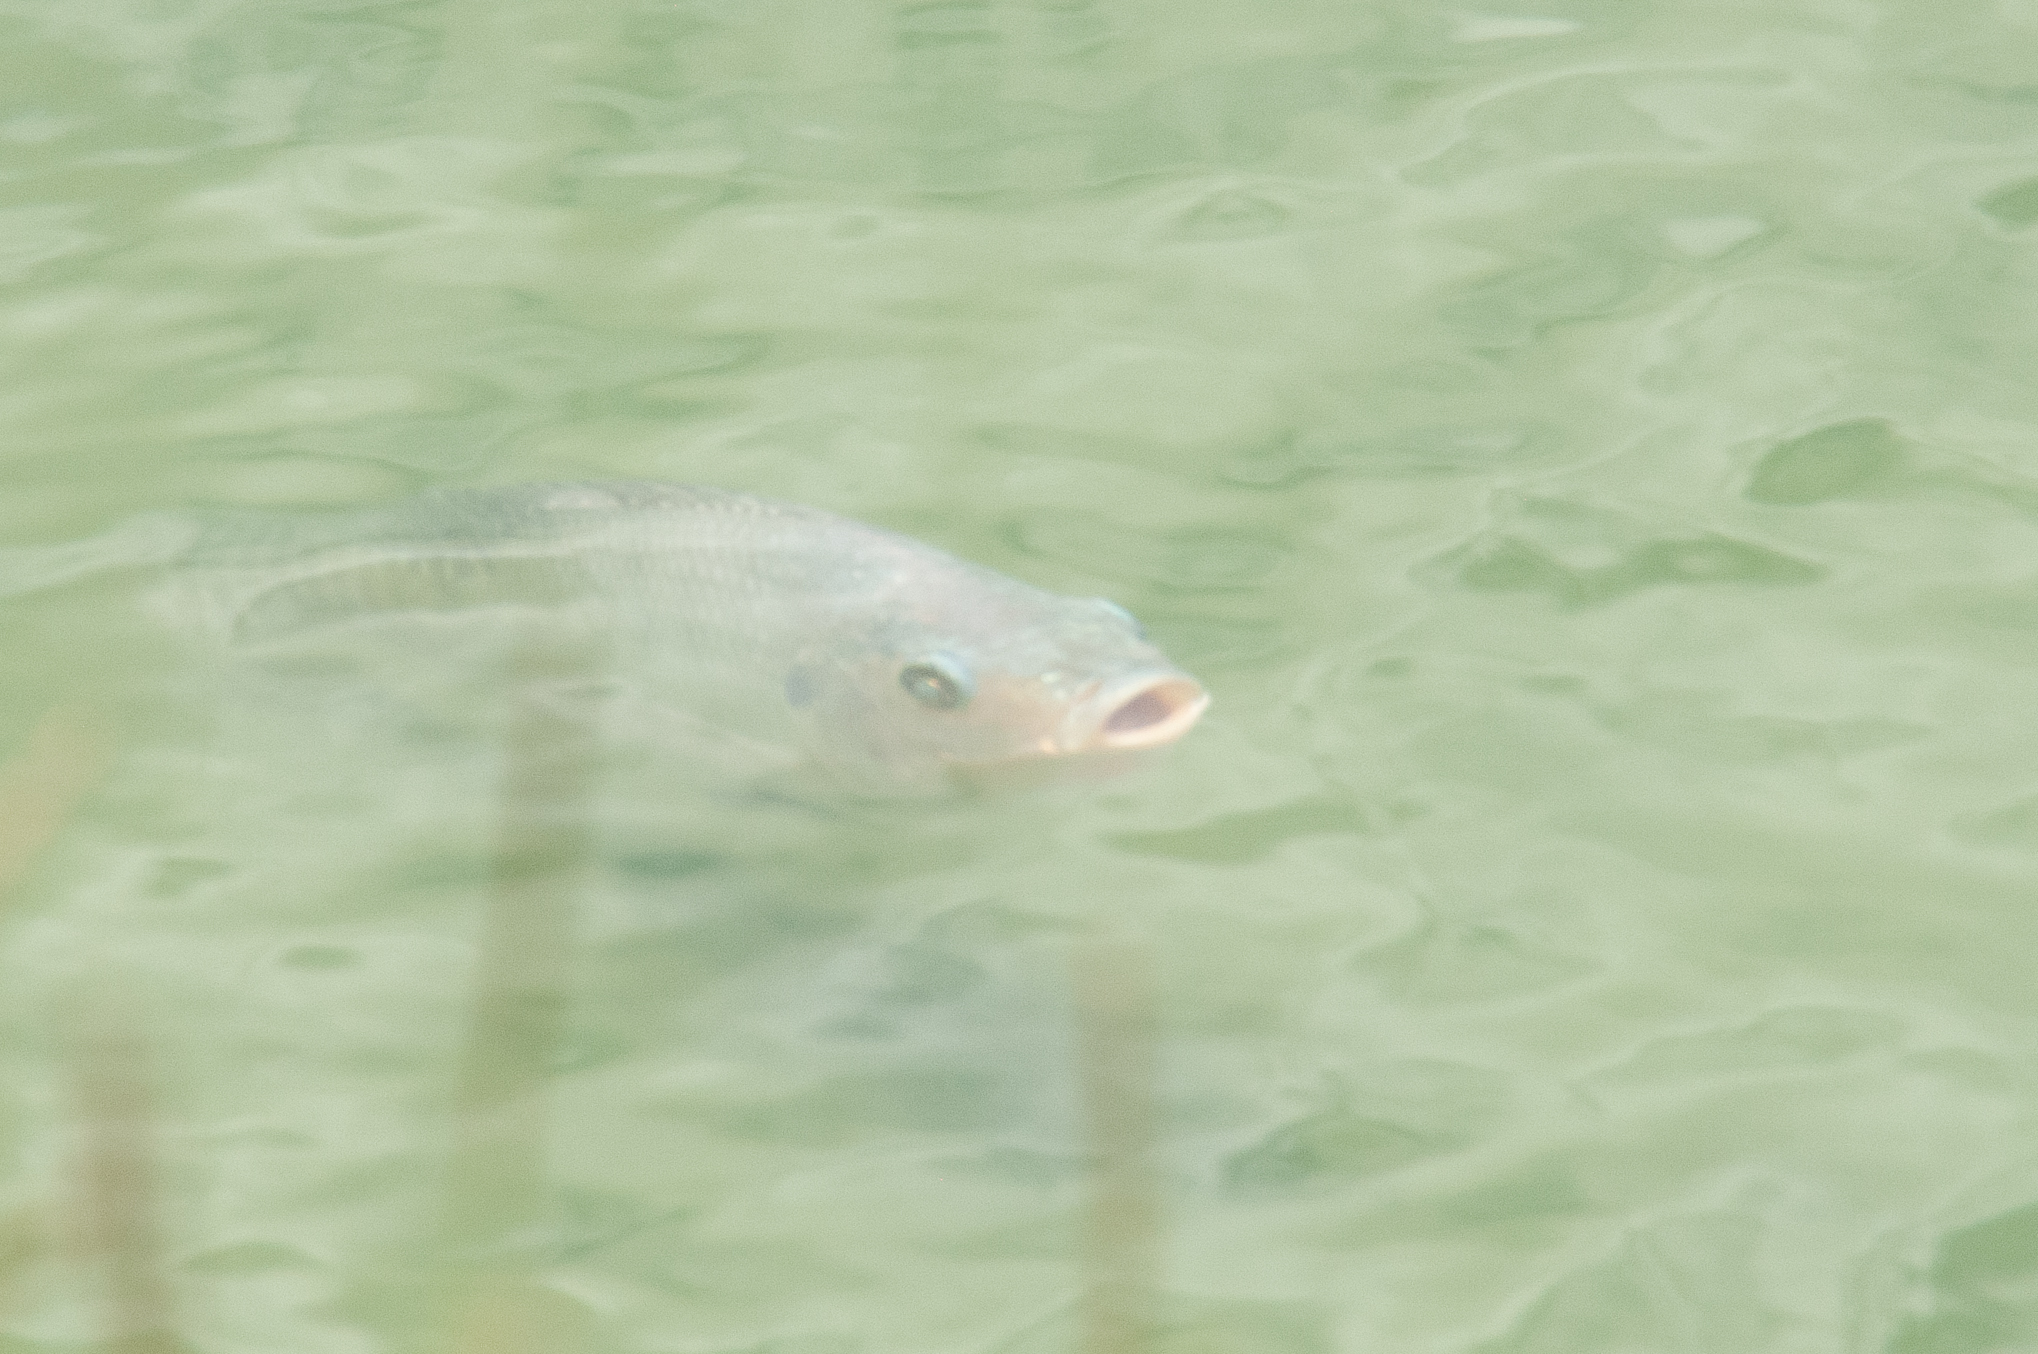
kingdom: Animalia
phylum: Chordata
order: Perciformes
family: Cichlidae
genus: Oreochromis
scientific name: Oreochromis niloticus
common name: Nile tilapia
